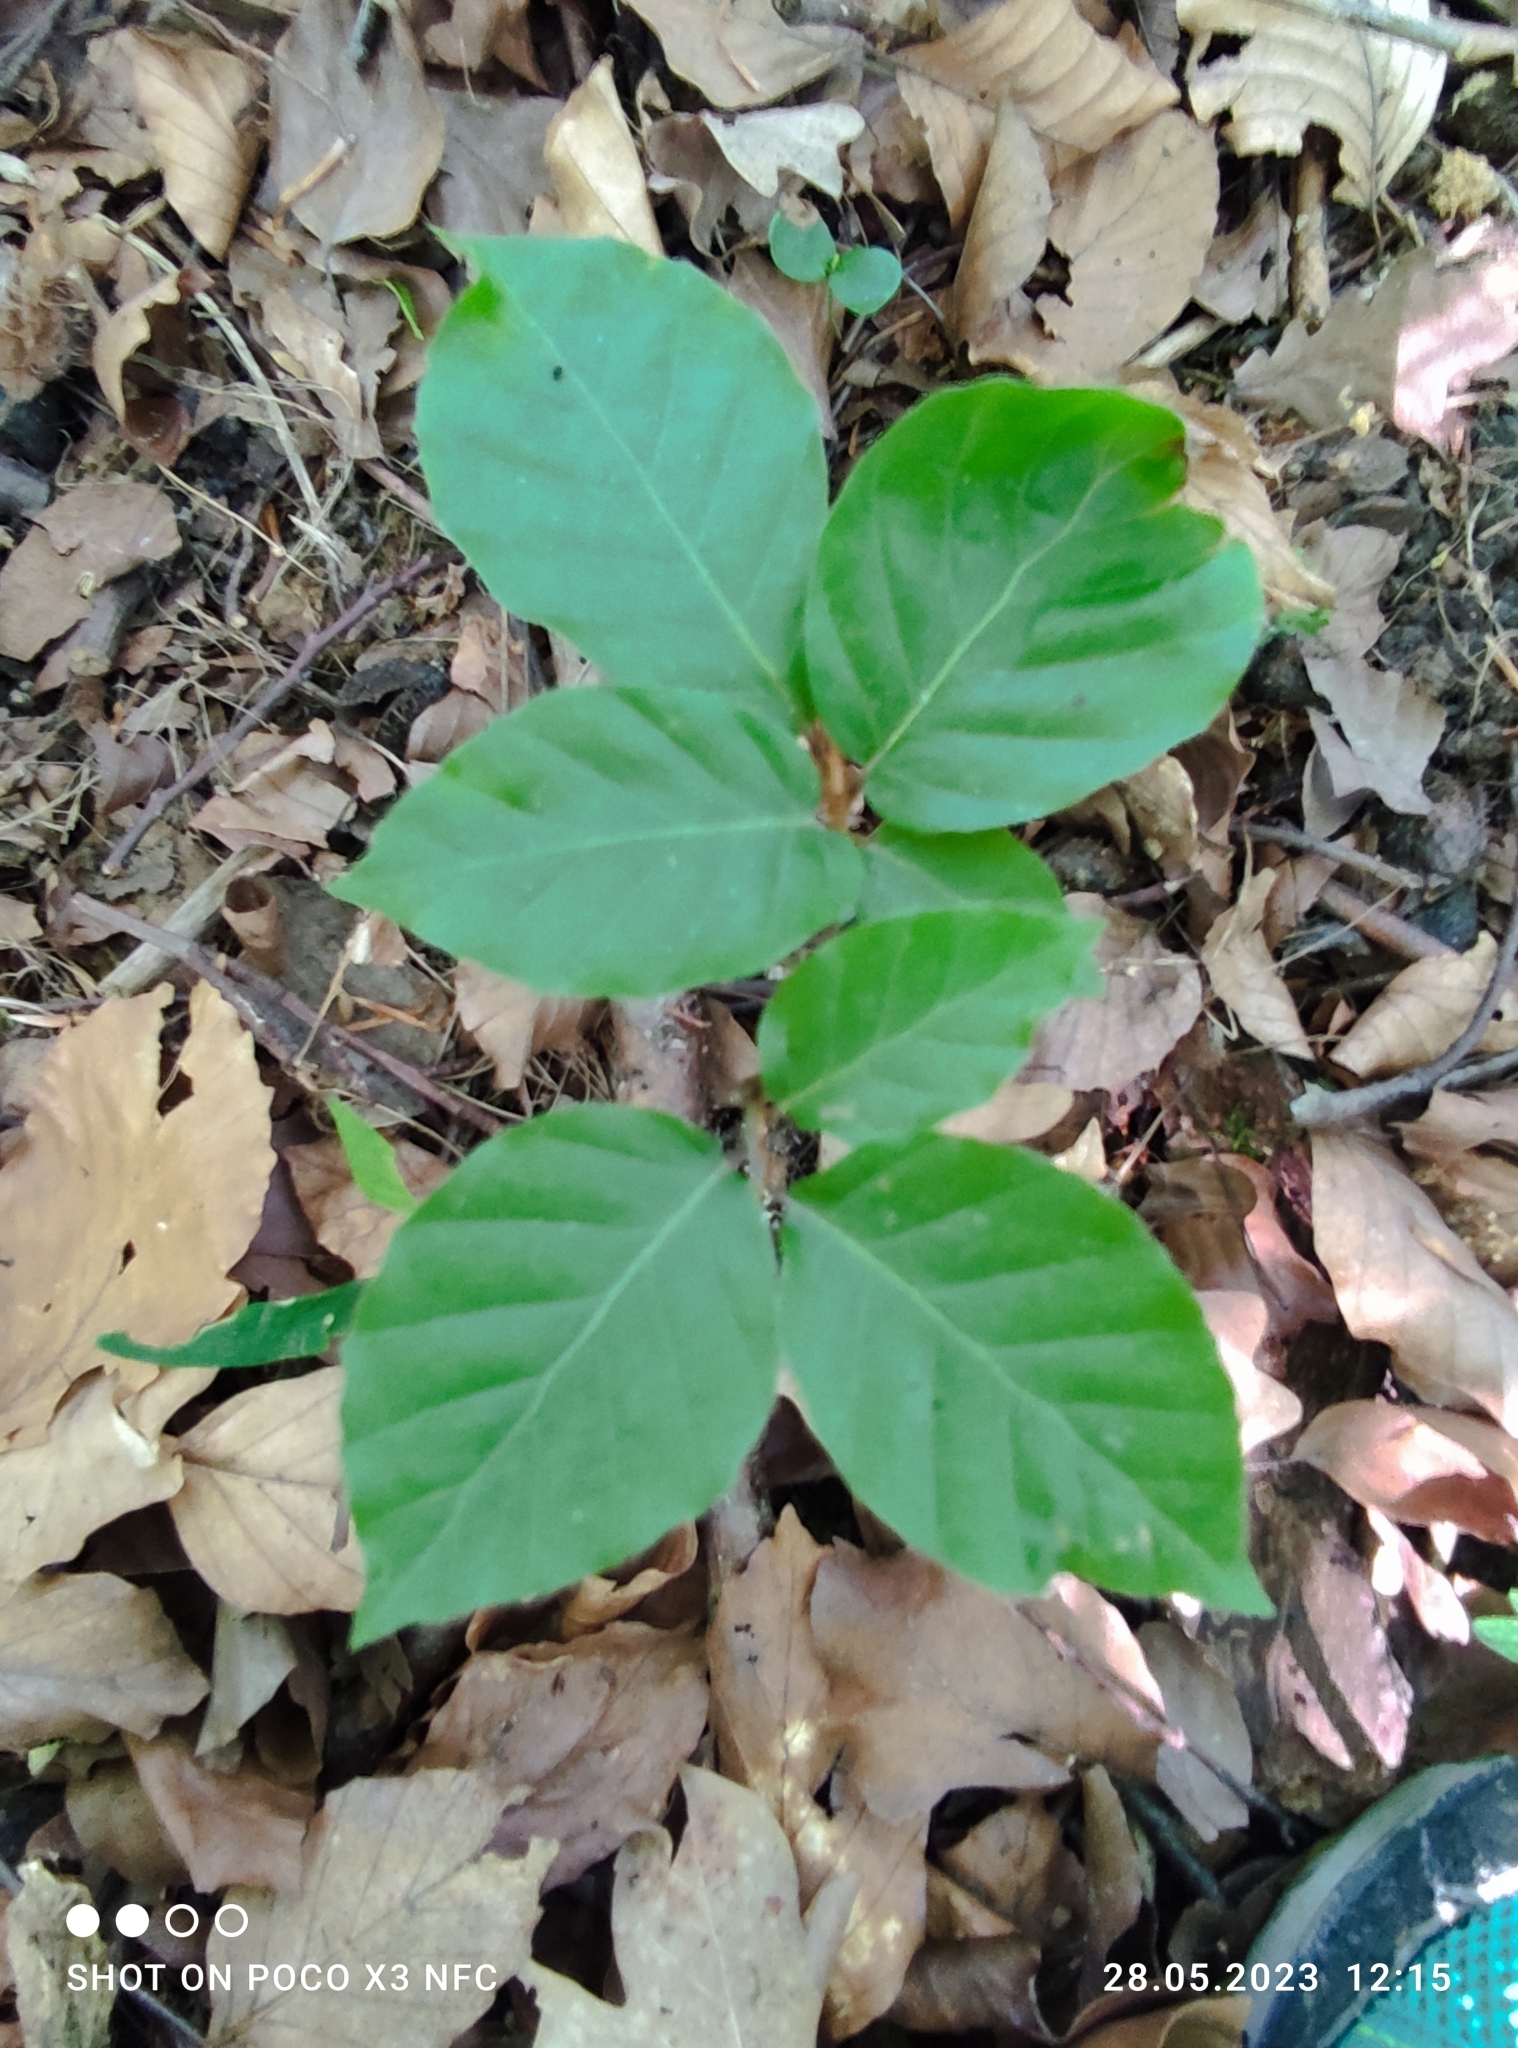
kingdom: Plantae
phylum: Tracheophyta
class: Magnoliopsida
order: Fagales
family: Fagaceae
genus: Fagus
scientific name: Fagus sylvatica
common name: Beech
